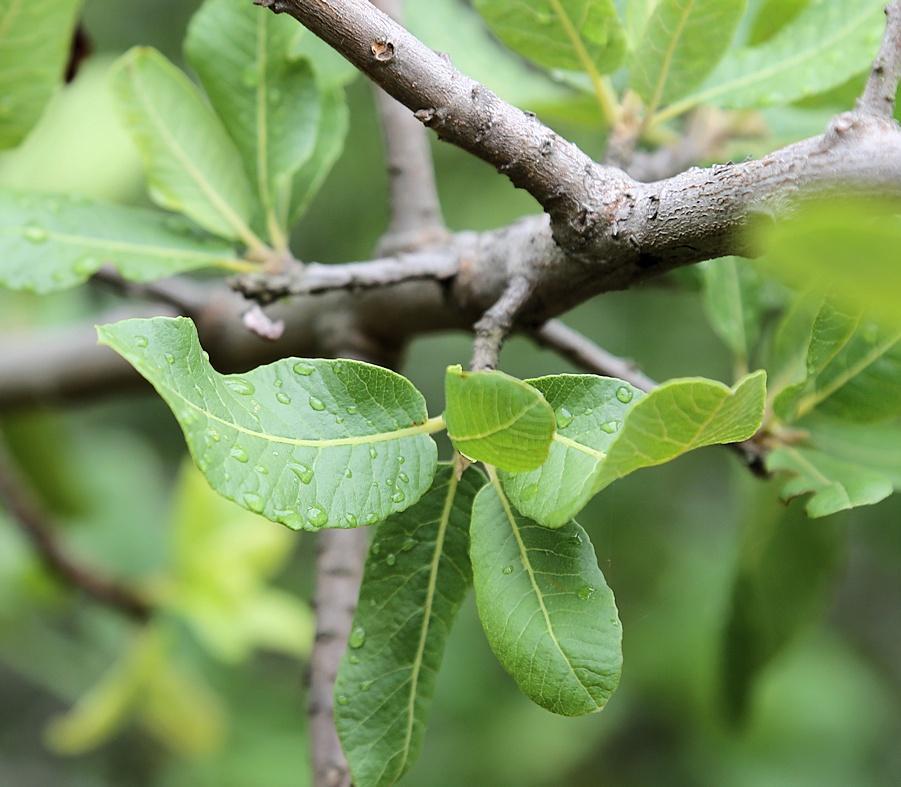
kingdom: Plantae
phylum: Tracheophyta
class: Magnoliopsida
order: Sapindales
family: Sapindaceae
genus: Pappea
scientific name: Pappea capensis
